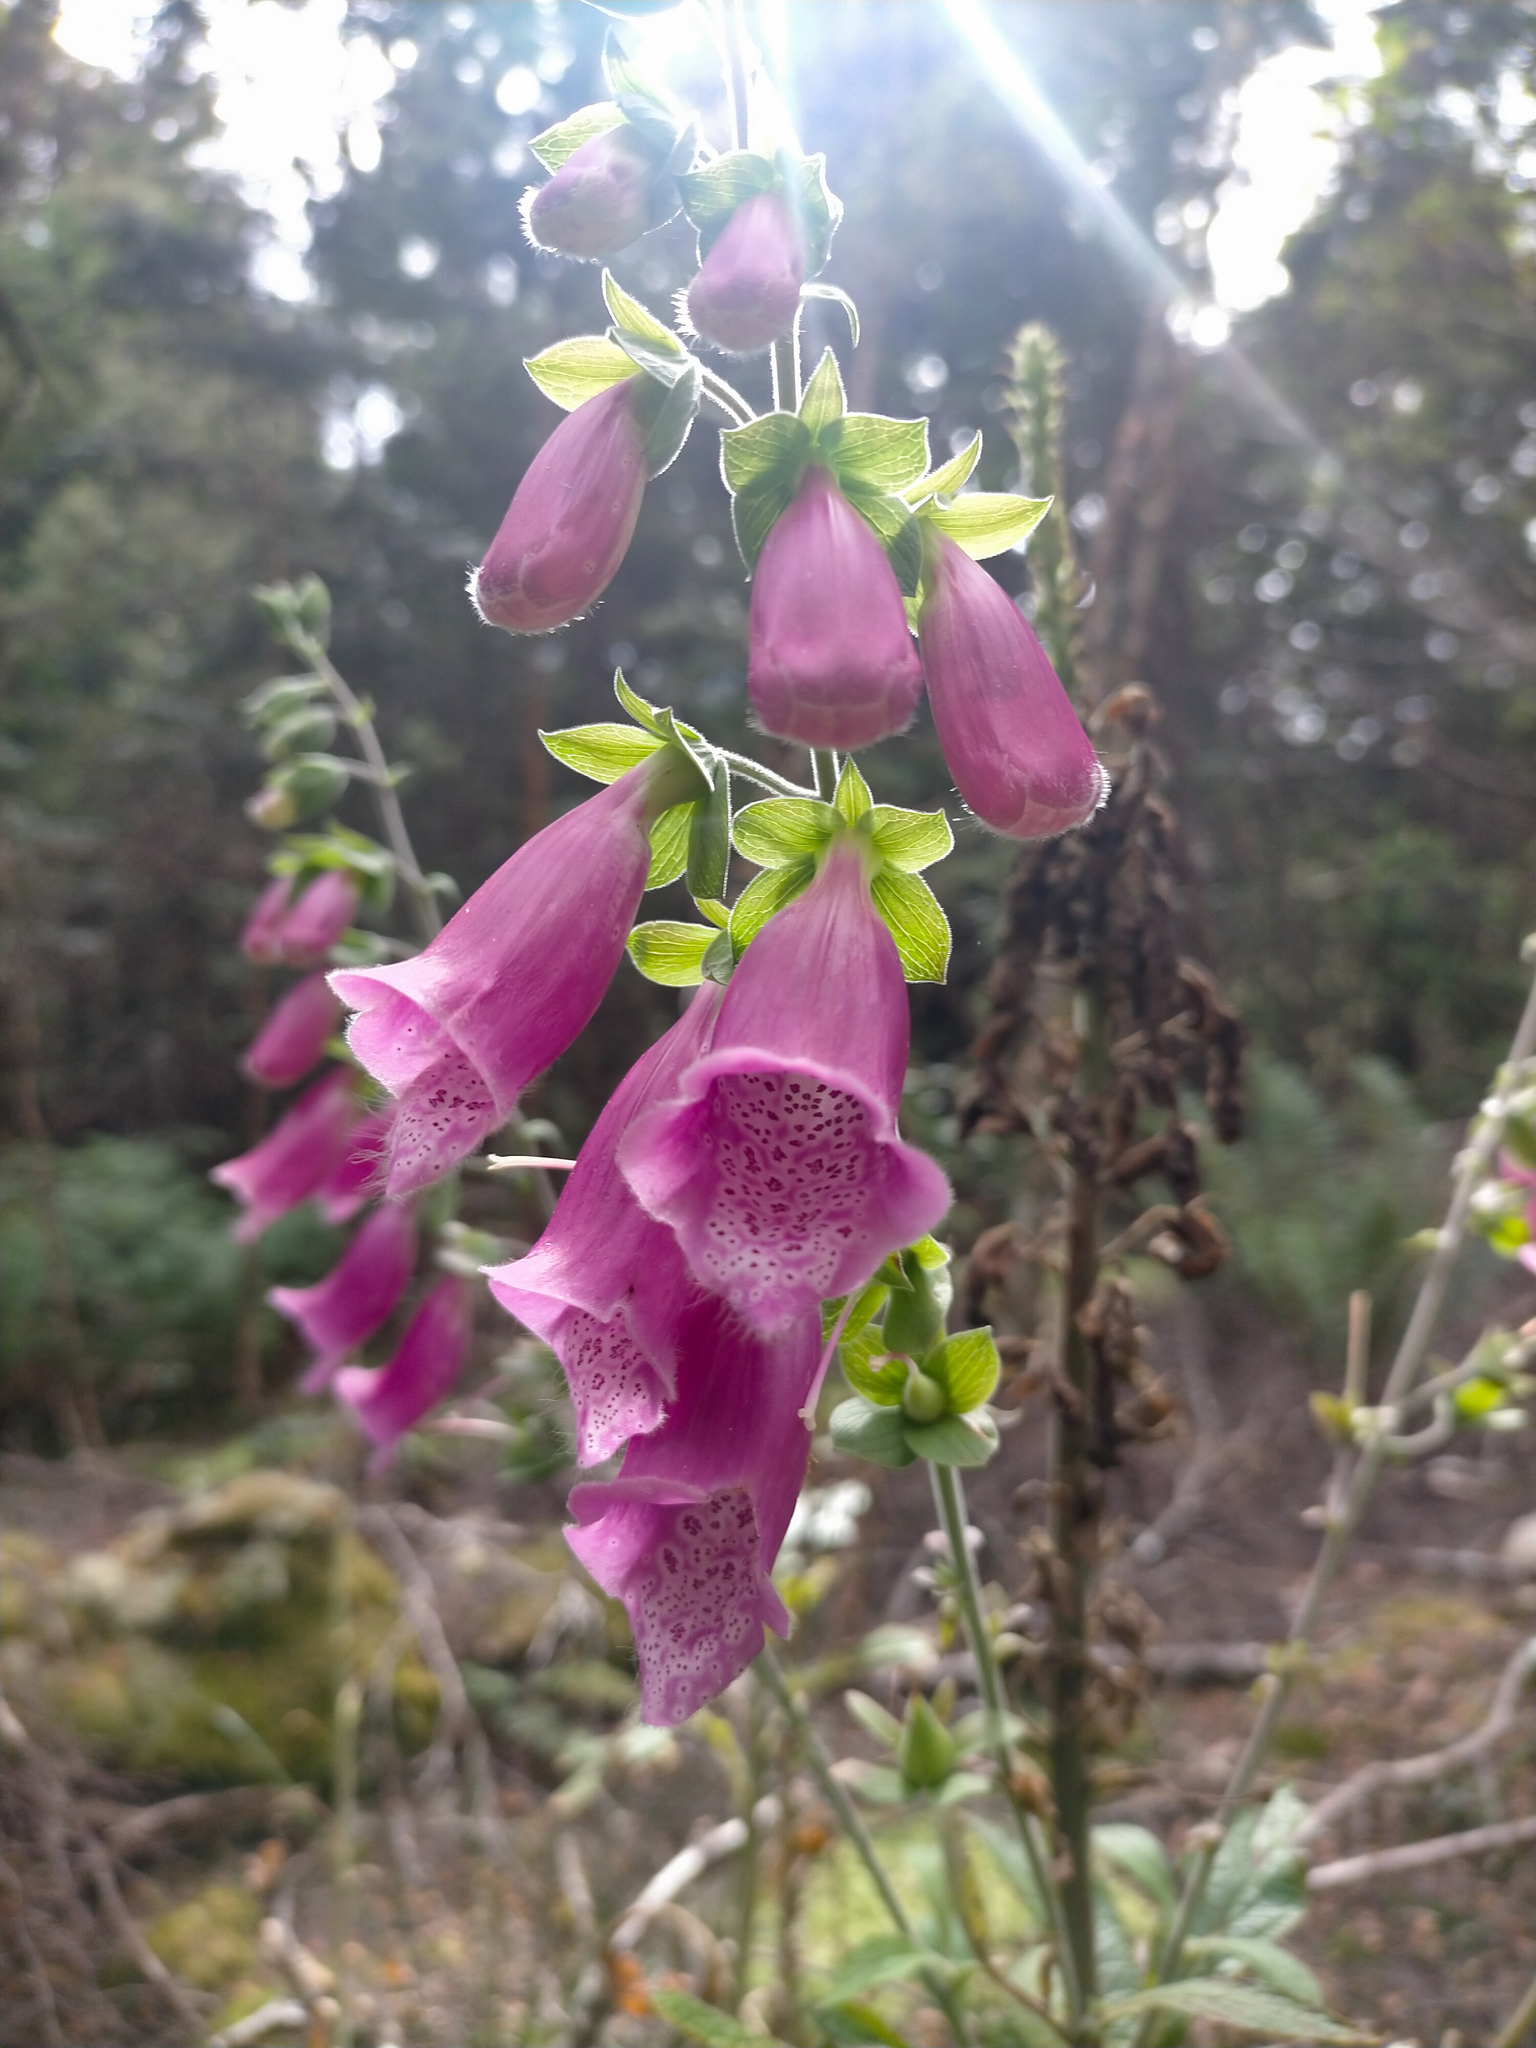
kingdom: Plantae
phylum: Tracheophyta
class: Magnoliopsida
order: Lamiales
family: Plantaginaceae
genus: Digitalis
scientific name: Digitalis purpurea
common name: Foxglove
